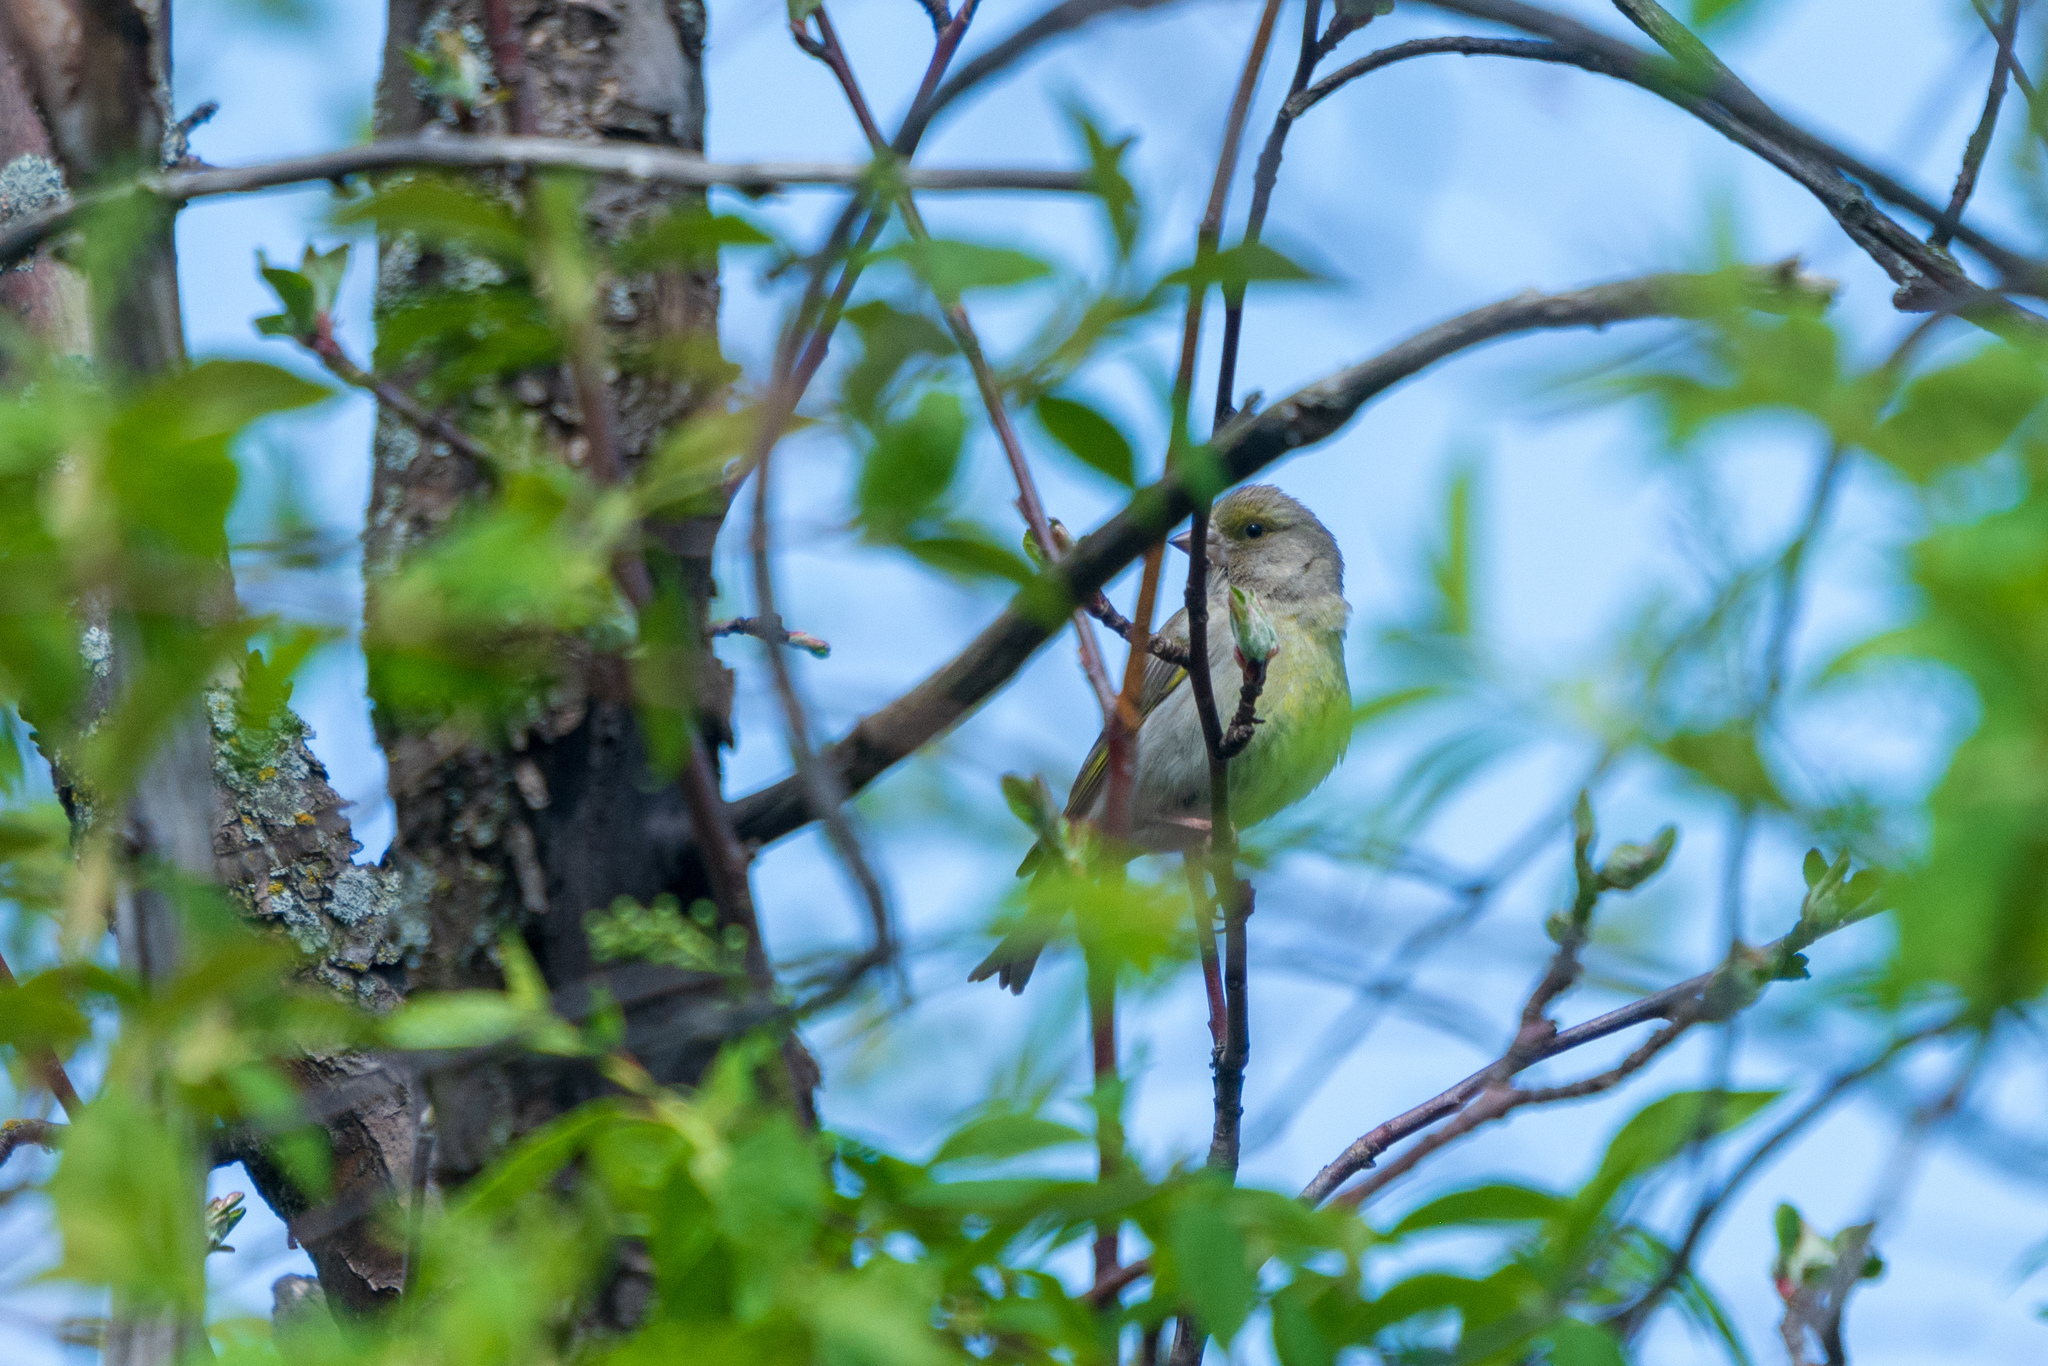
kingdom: Plantae
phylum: Tracheophyta
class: Liliopsida
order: Poales
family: Poaceae
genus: Chloris
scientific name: Chloris chloris
